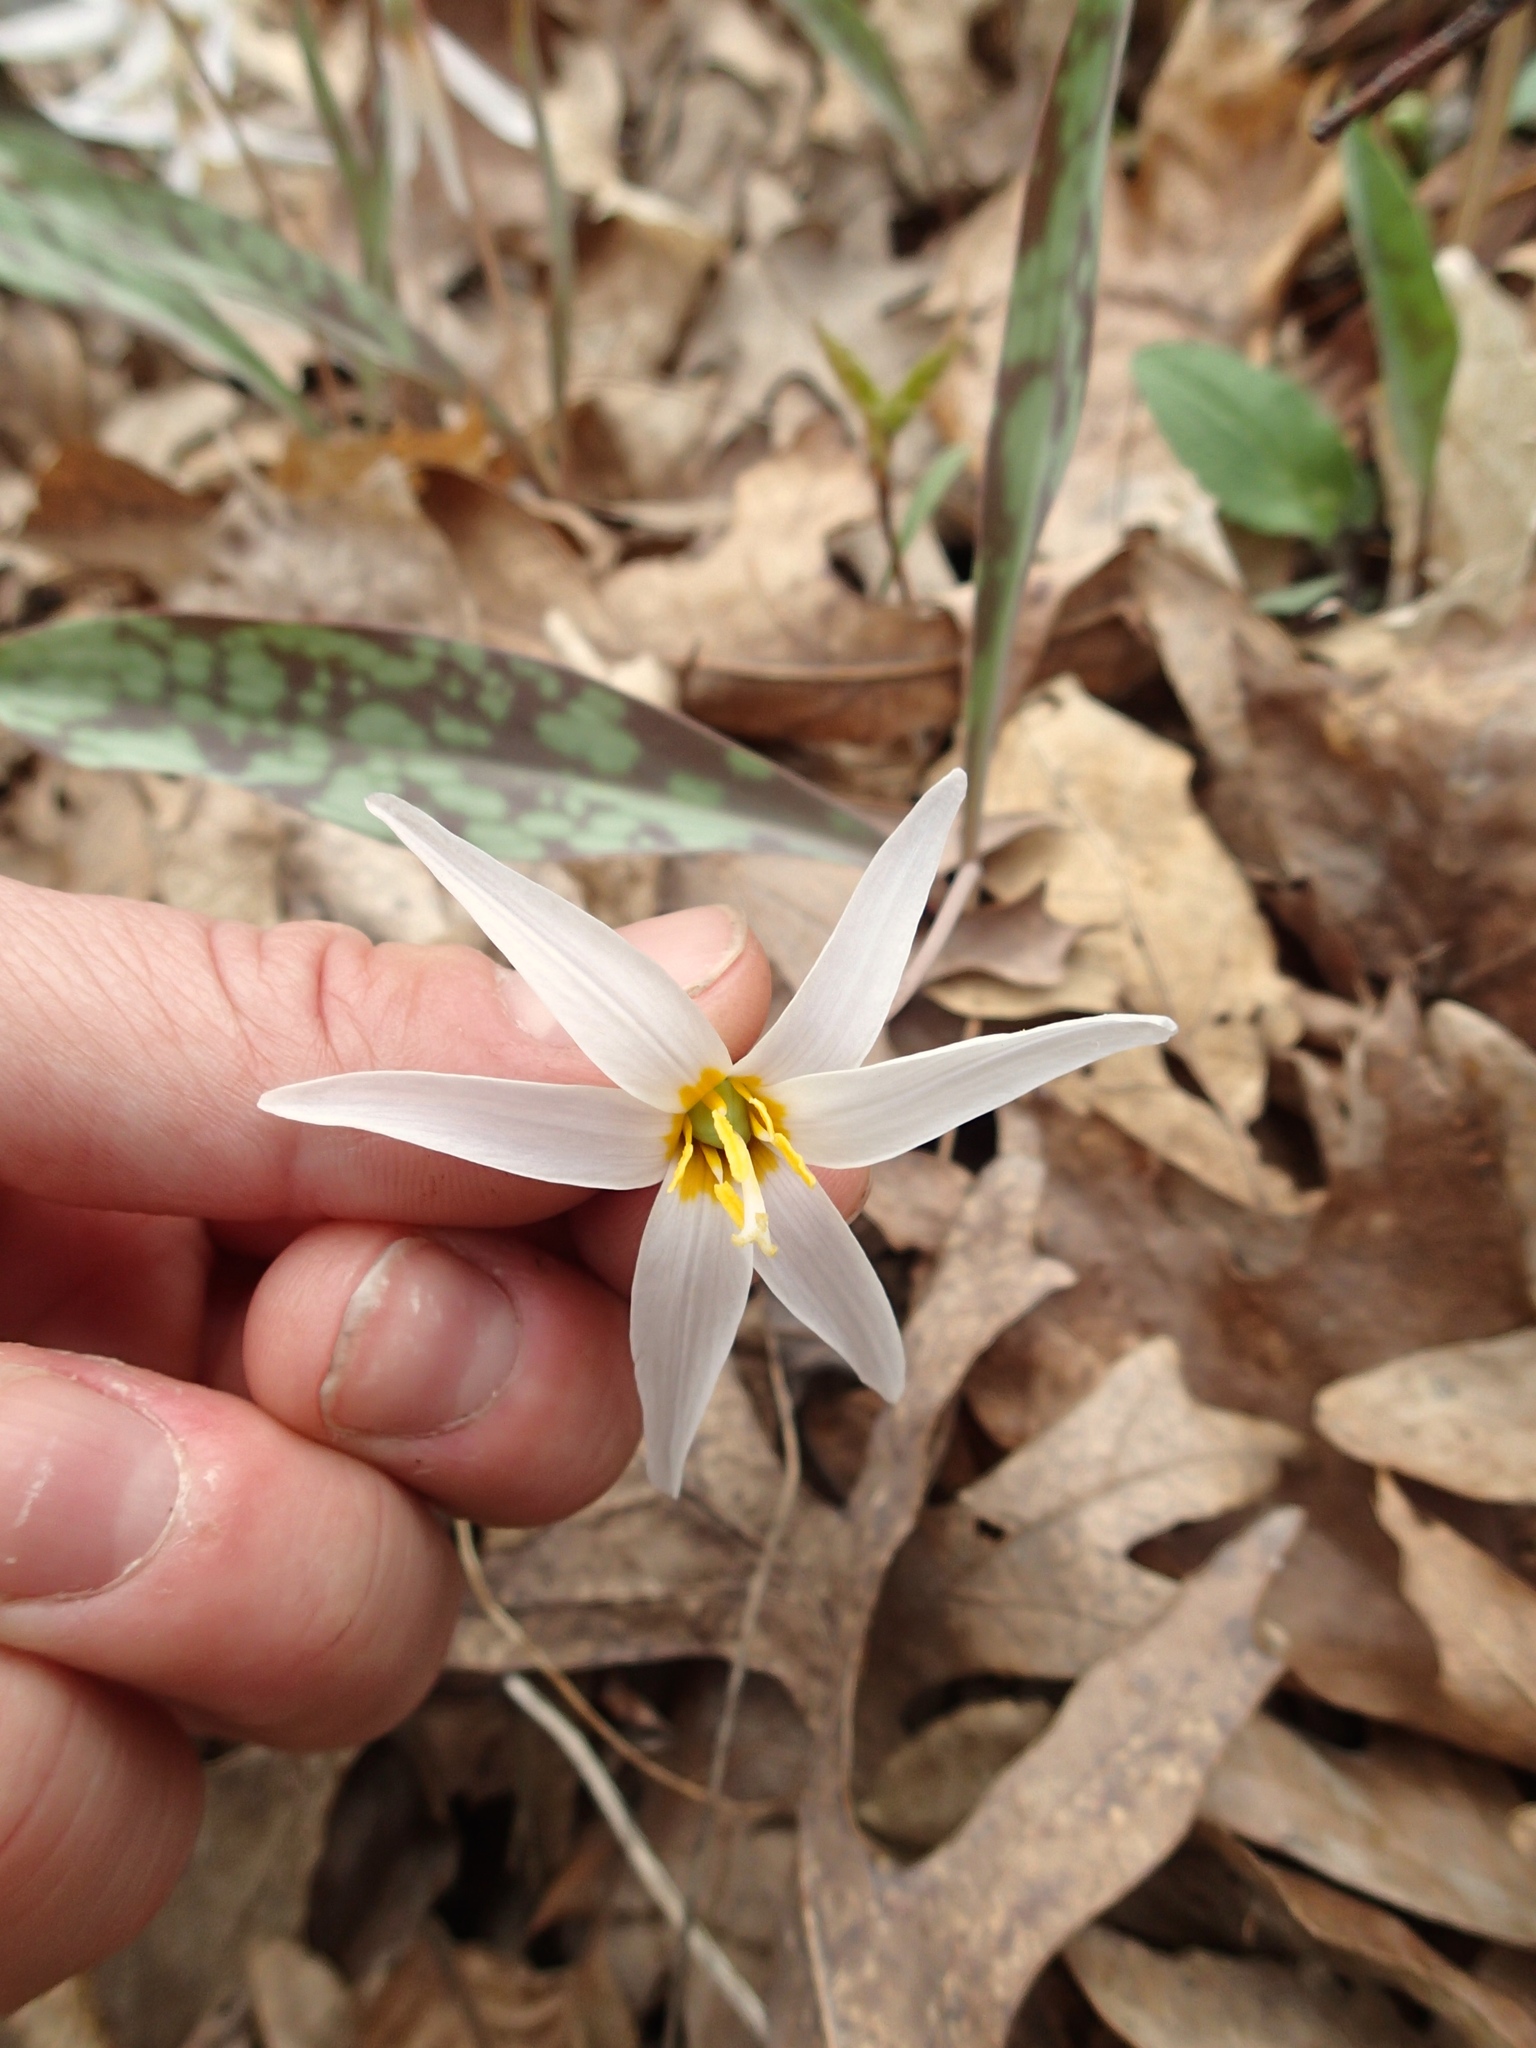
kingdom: Plantae
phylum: Tracheophyta
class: Liliopsida
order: Liliales
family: Liliaceae
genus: Erythronium
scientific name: Erythronium albidum
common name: White trout-lily
